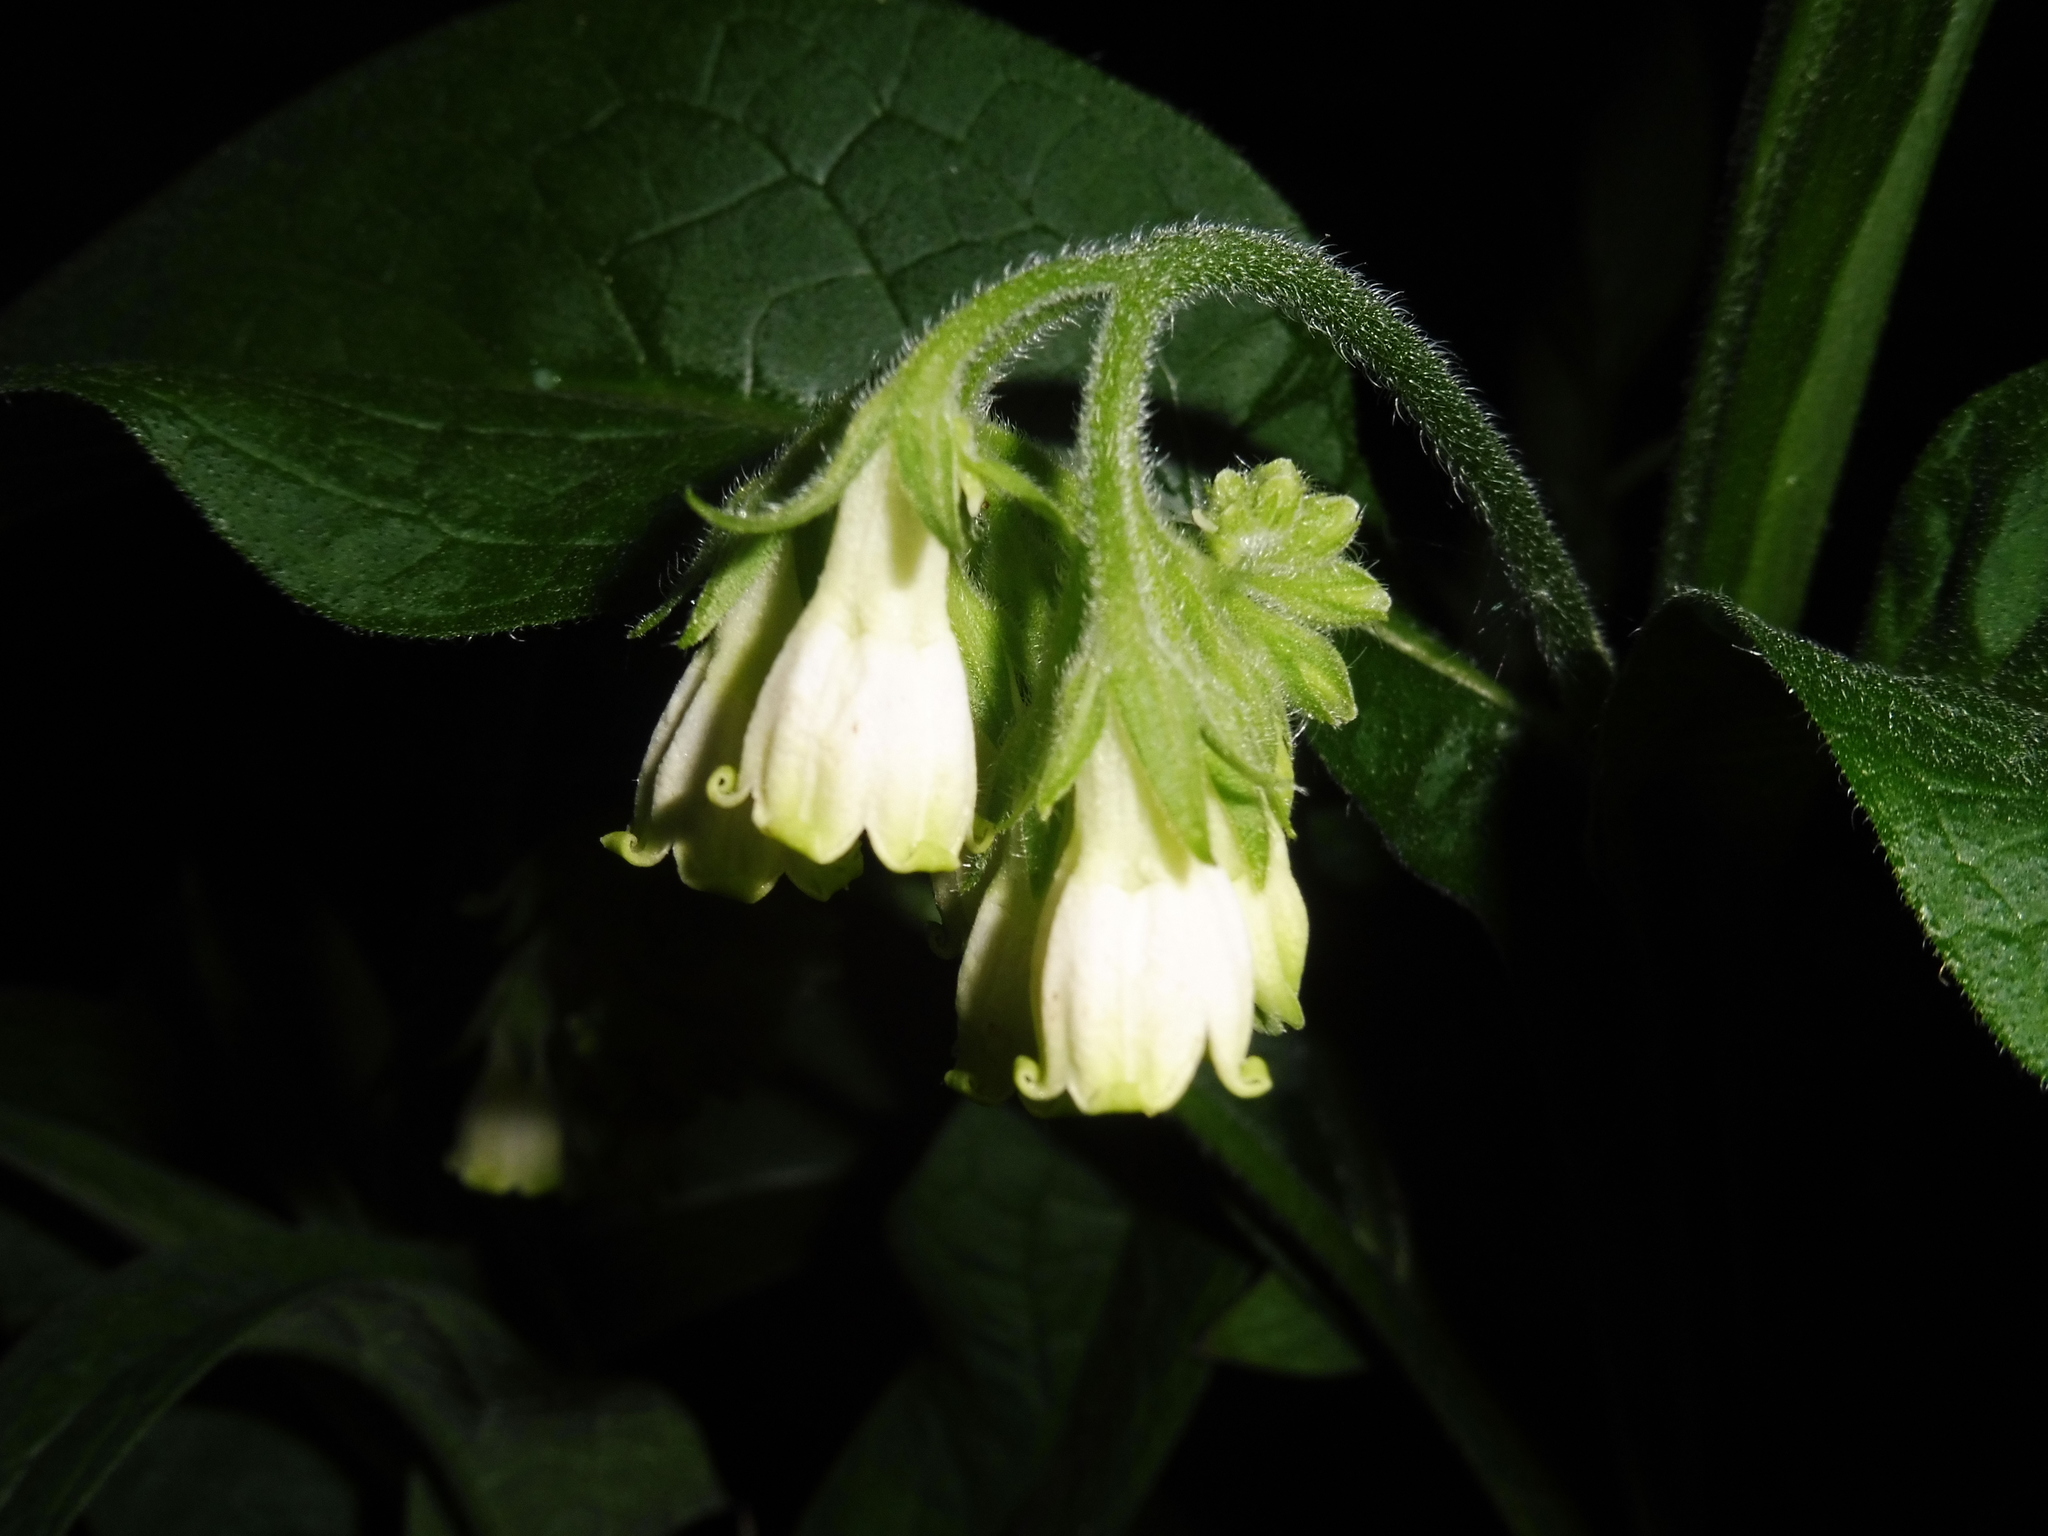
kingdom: Plantae
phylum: Tracheophyta
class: Magnoliopsida
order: Boraginales
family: Boraginaceae
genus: Symphytum
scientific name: Symphytum bohemicum
